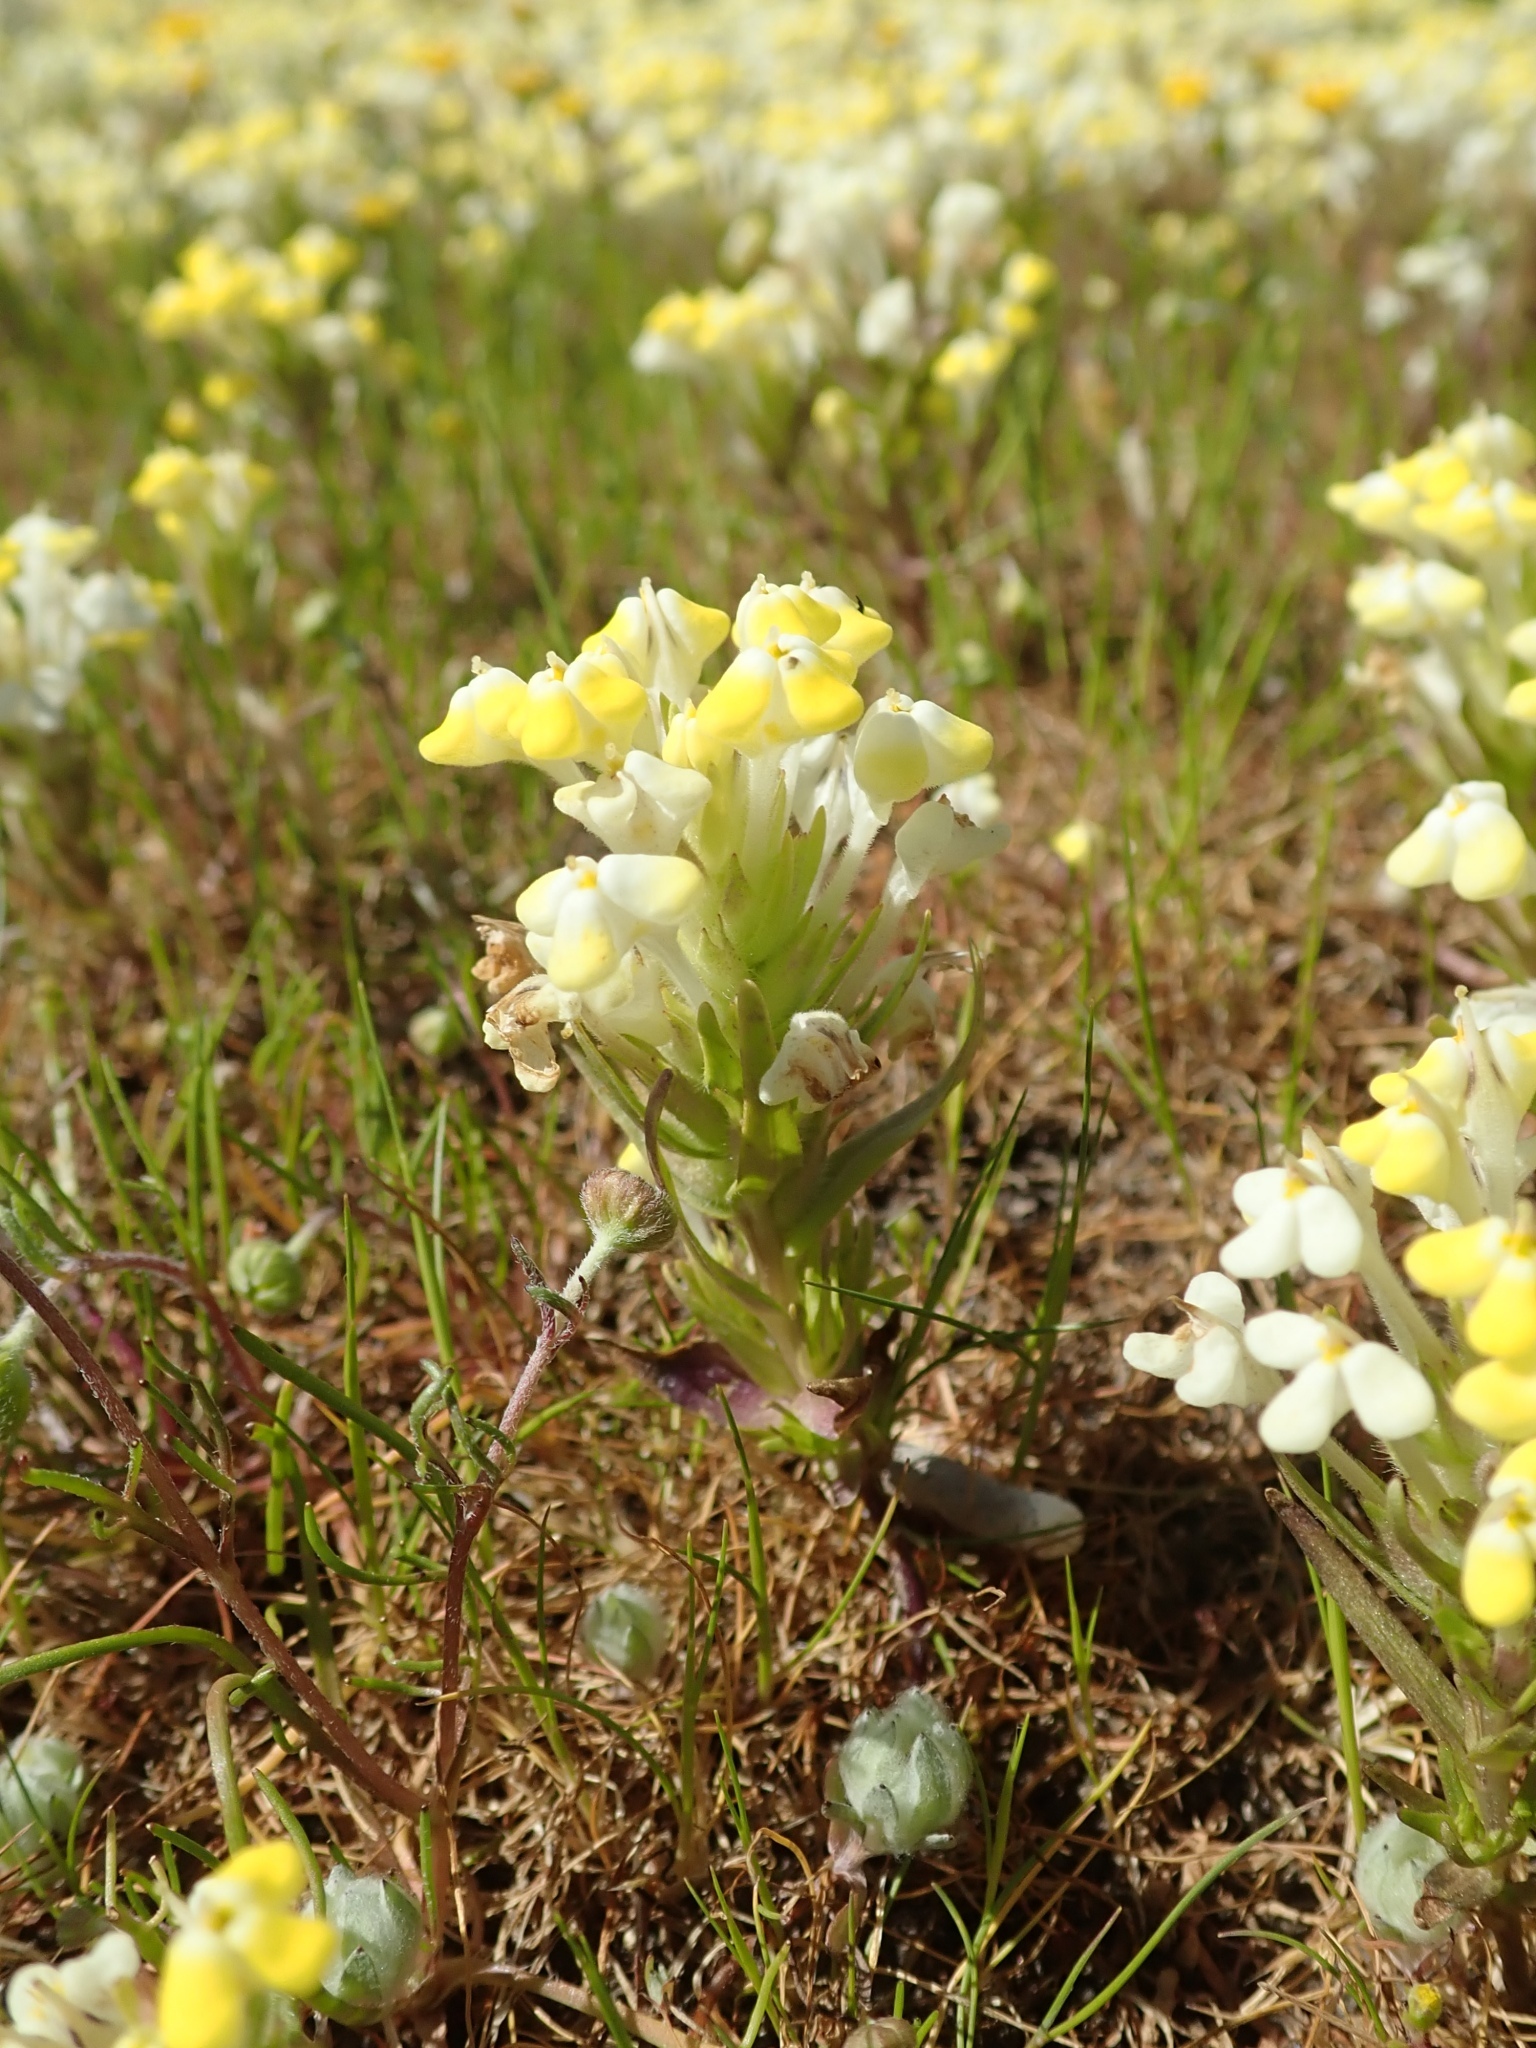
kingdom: Plantae
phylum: Tracheophyta
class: Magnoliopsida
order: Lamiales
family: Orobanchaceae
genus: Castilleja
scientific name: Castilleja campestris
